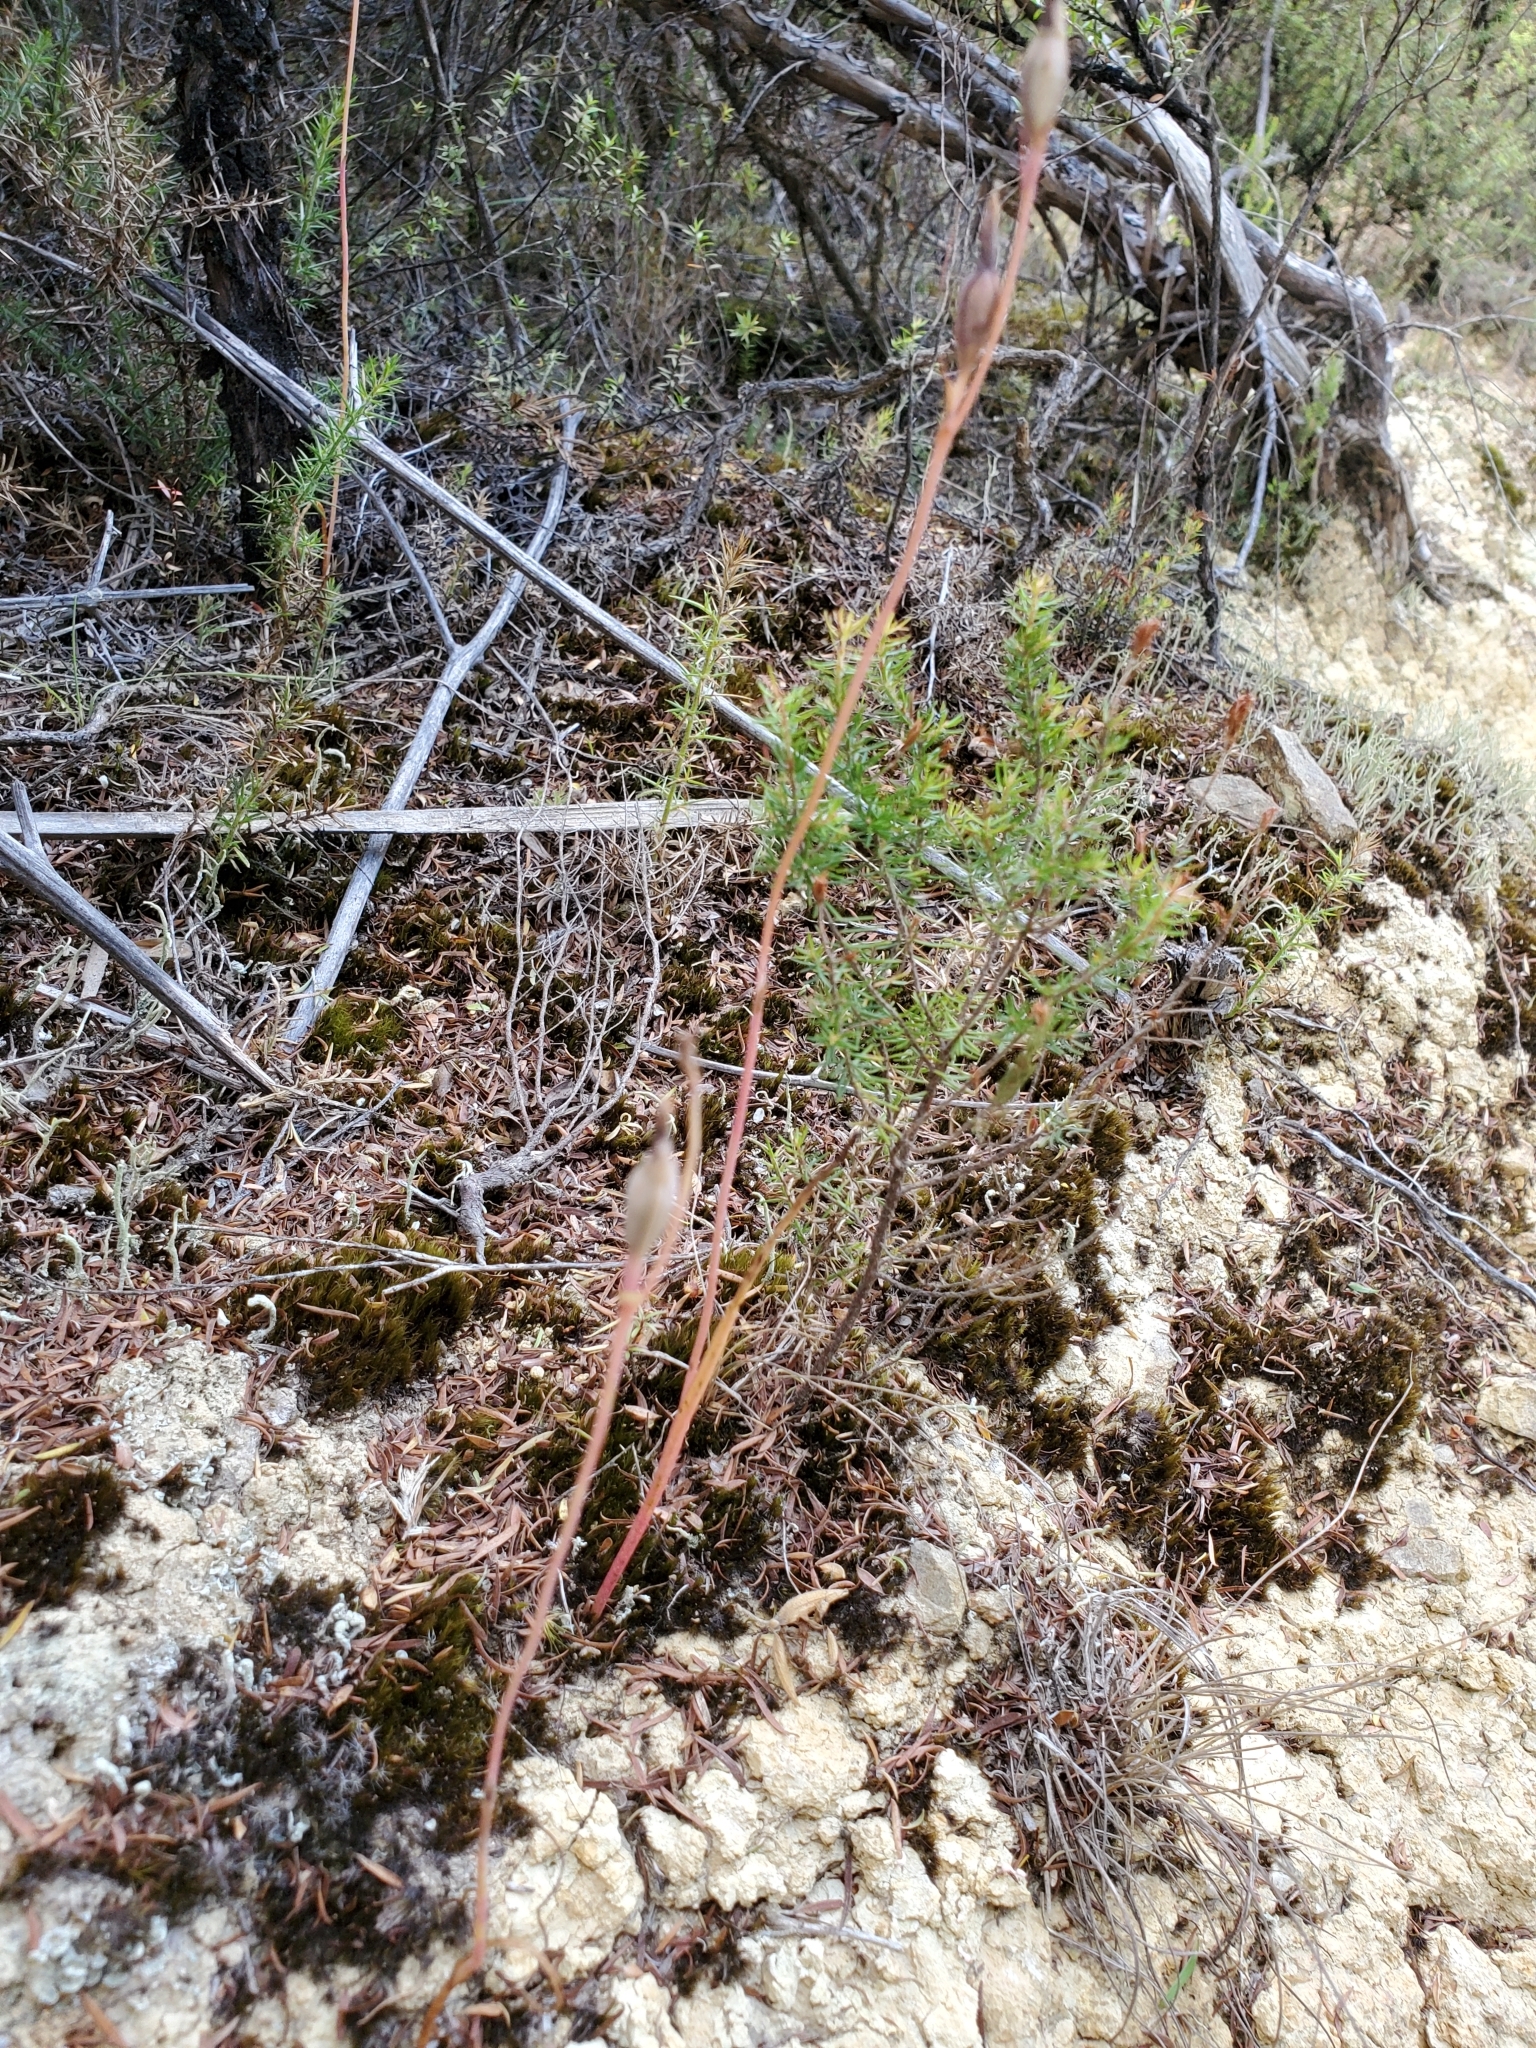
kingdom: Plantae
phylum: Tracheophyta
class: Liliopsida
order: Asparagales
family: Orchidaceae
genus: Orthoceras
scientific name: Orthoceras novae-zeelandiae
